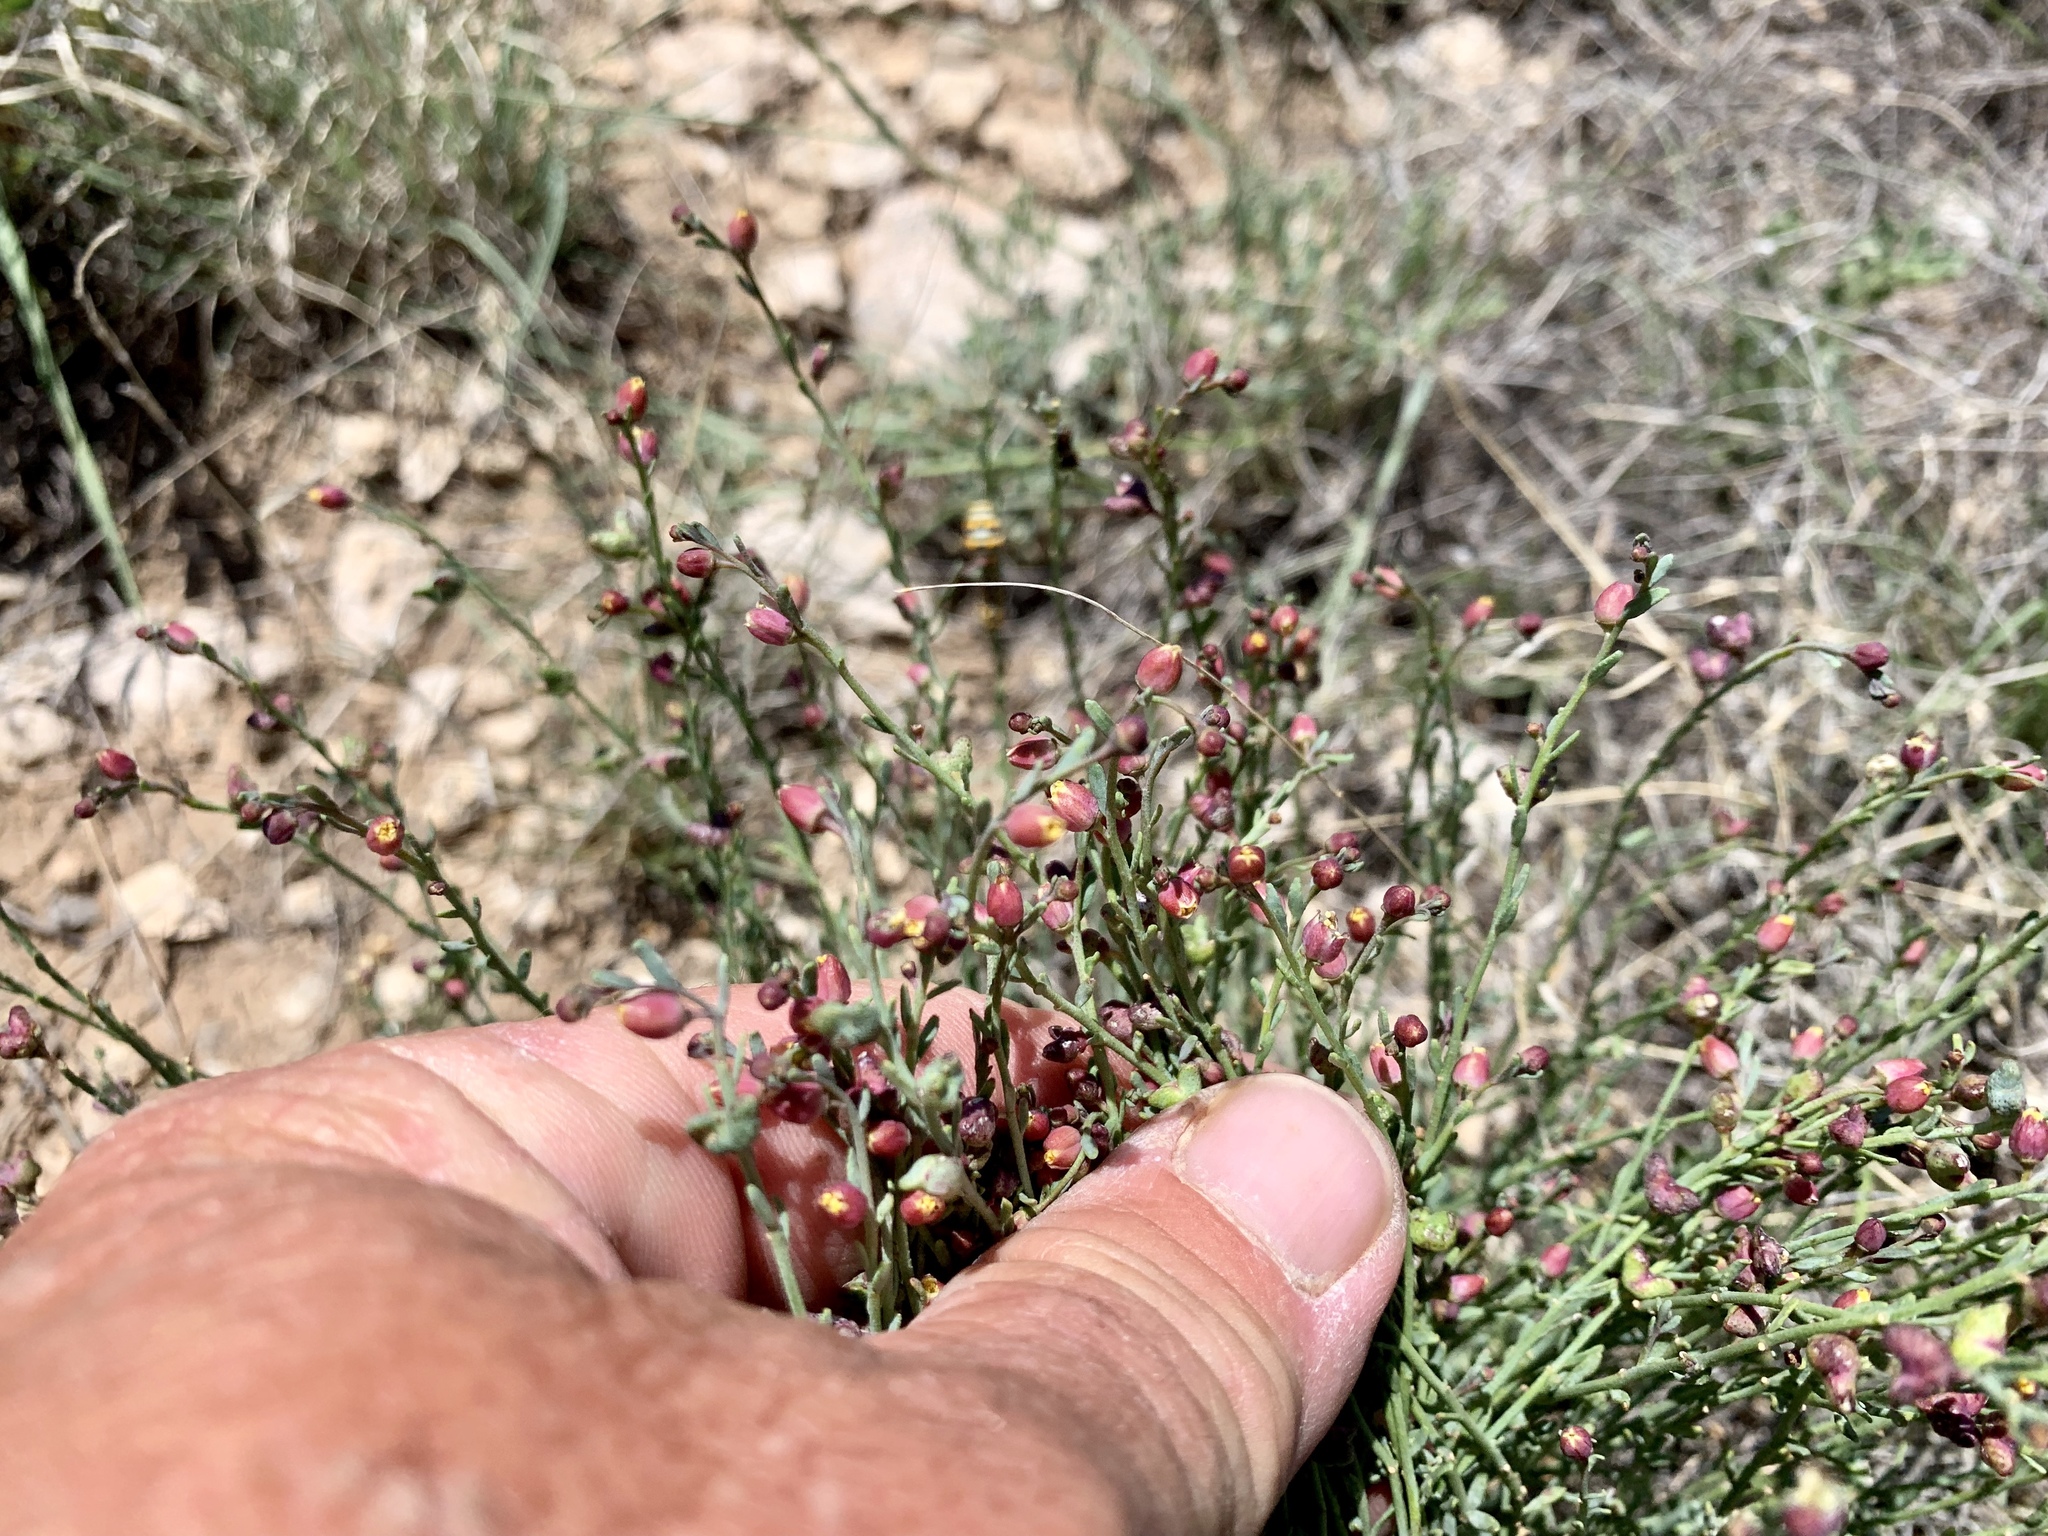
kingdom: Plantae
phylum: Tracheophyta
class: Magnoliopsida
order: Sapindales
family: Rutaceae
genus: Thamnosma
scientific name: Thamnosma texana
